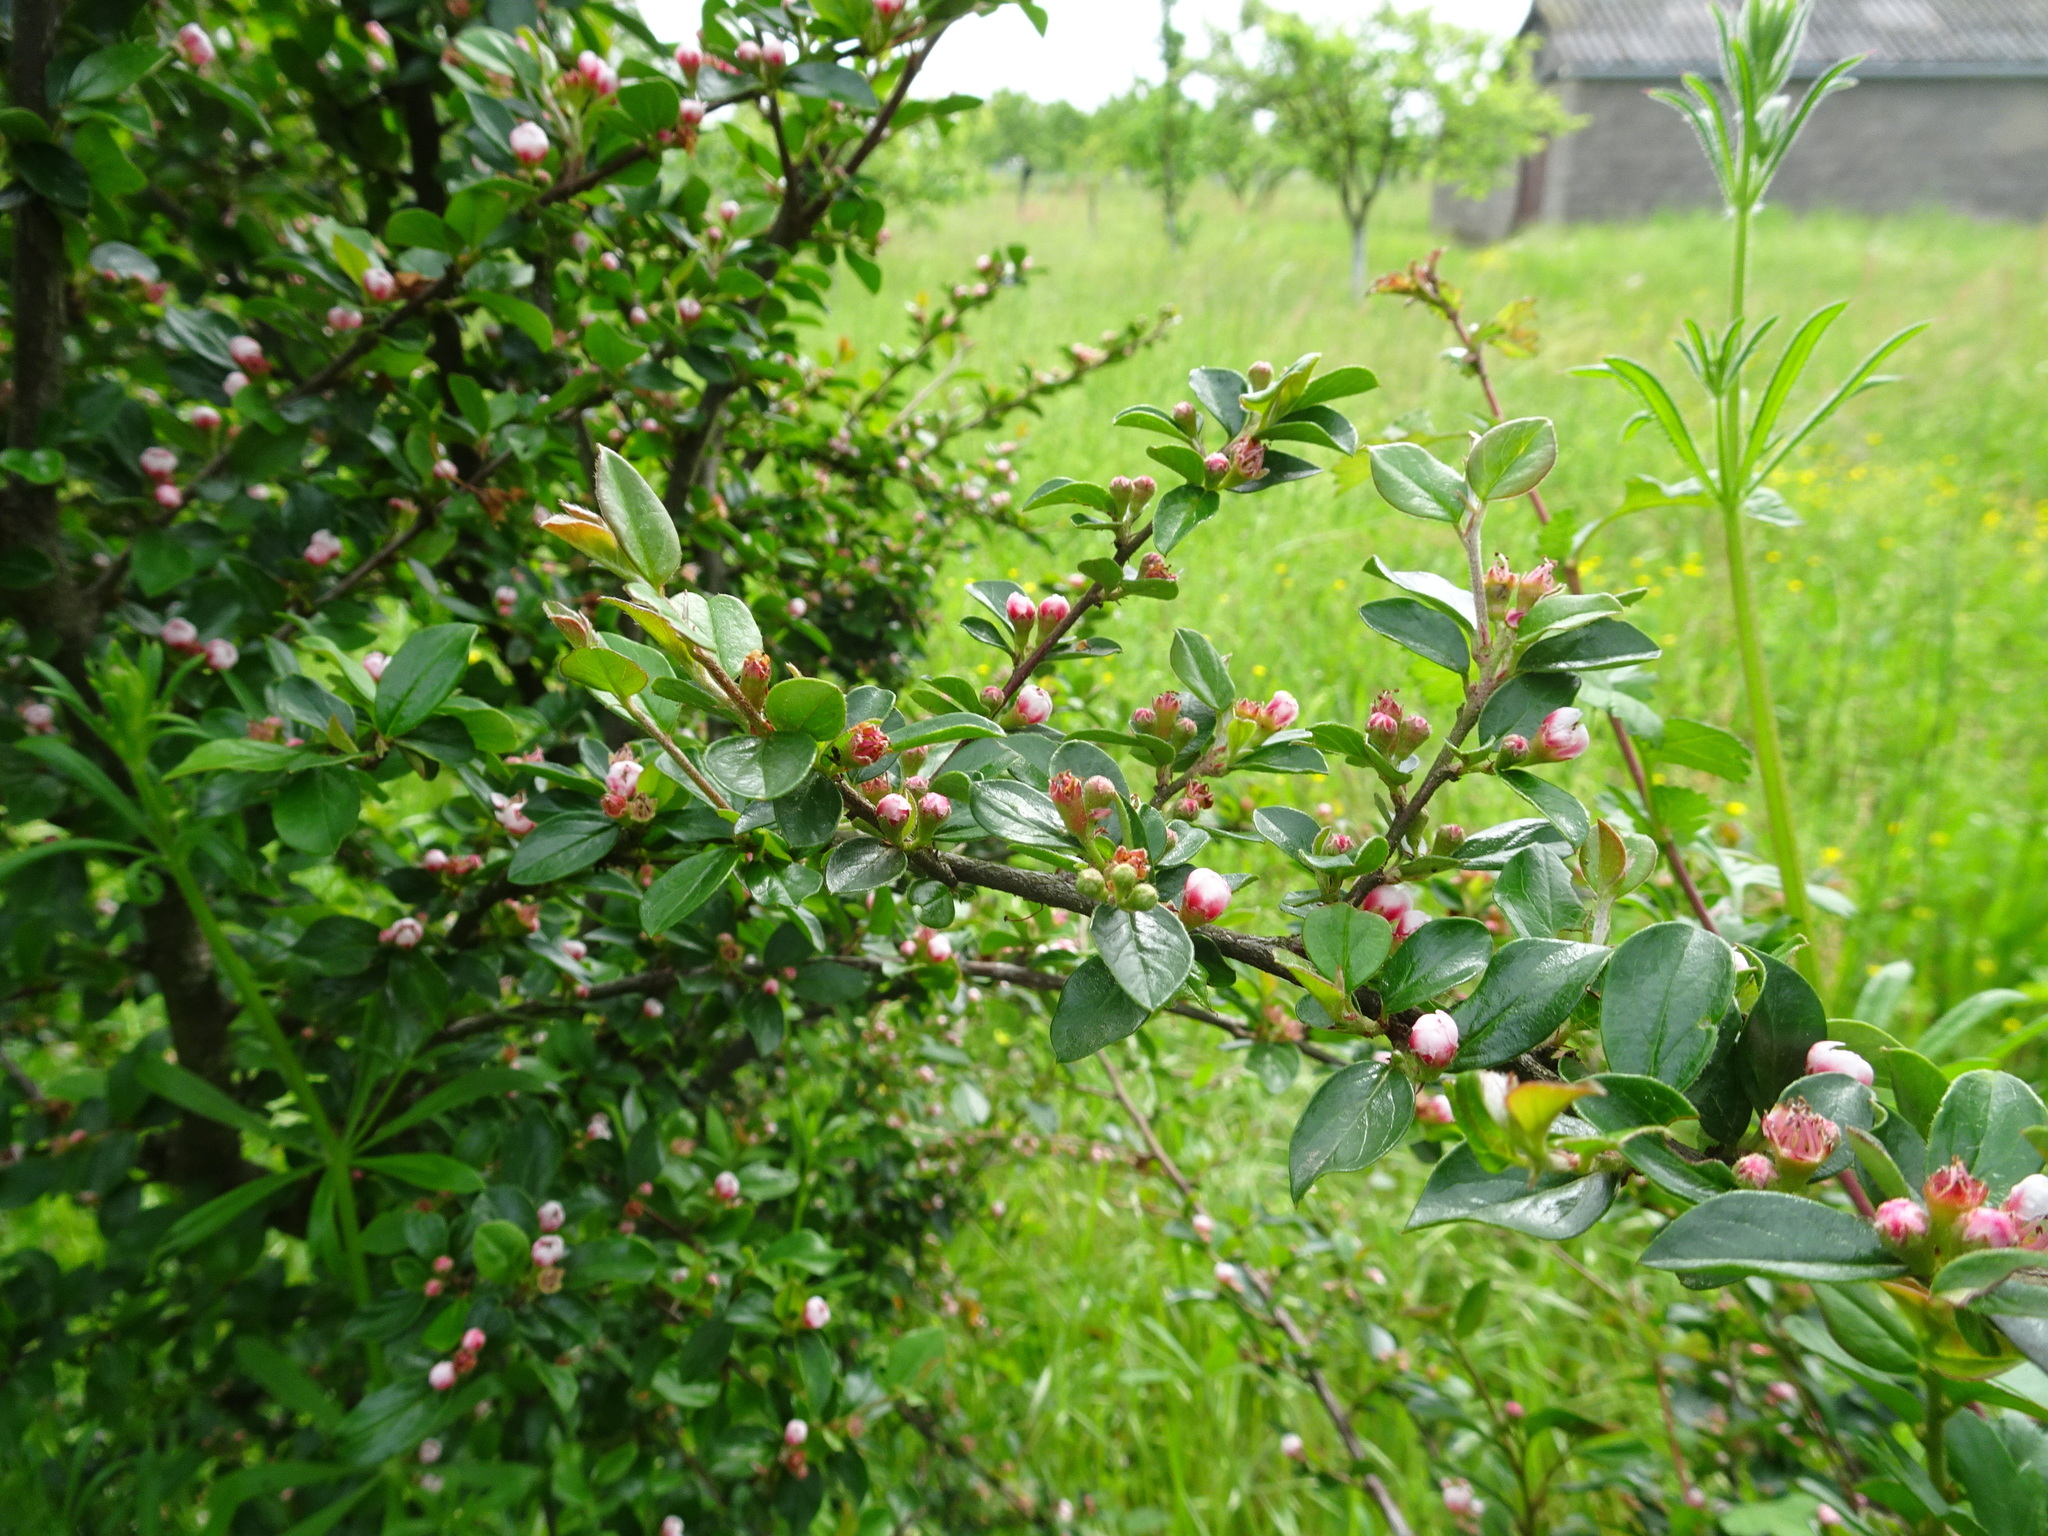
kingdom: Plantae
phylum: Tracheophyta
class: Magnoliopsida
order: Rosales
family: Rosaceae
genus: Cotoneaster
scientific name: Cotoneaster divaricatus
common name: Spreading cotoneaster
